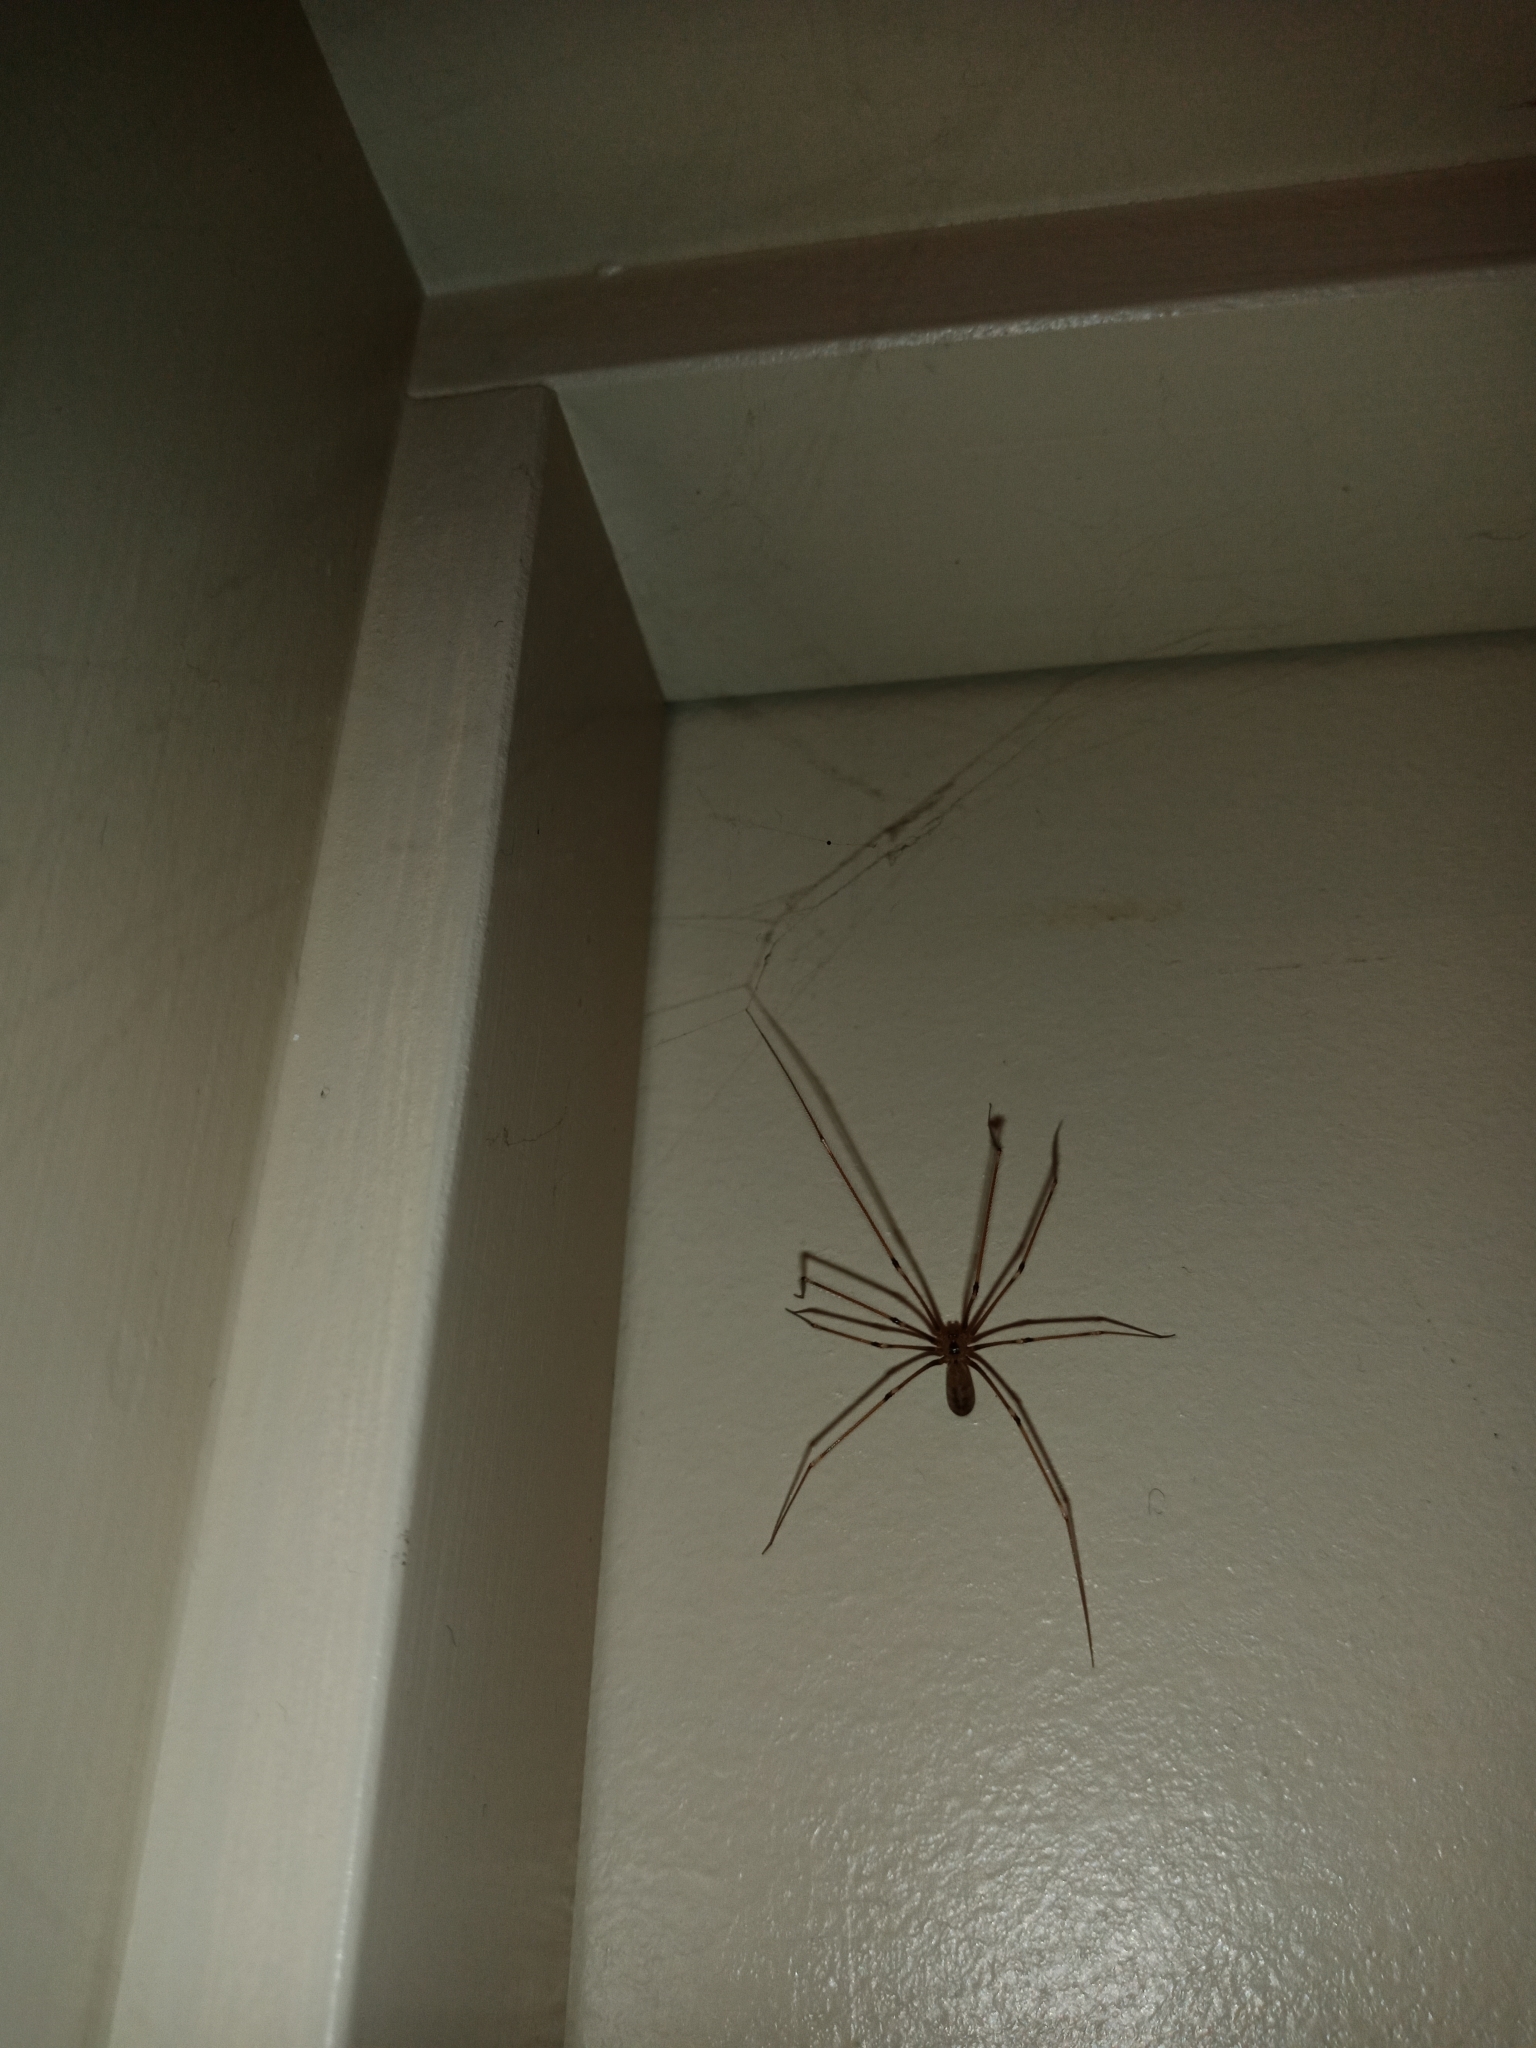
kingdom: Animalia
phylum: Arthropoda
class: Arachnida
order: Araneae
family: Pholcidae
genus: Pholcus
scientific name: Pholcus phalangioides
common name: Longbodied cellar spider
